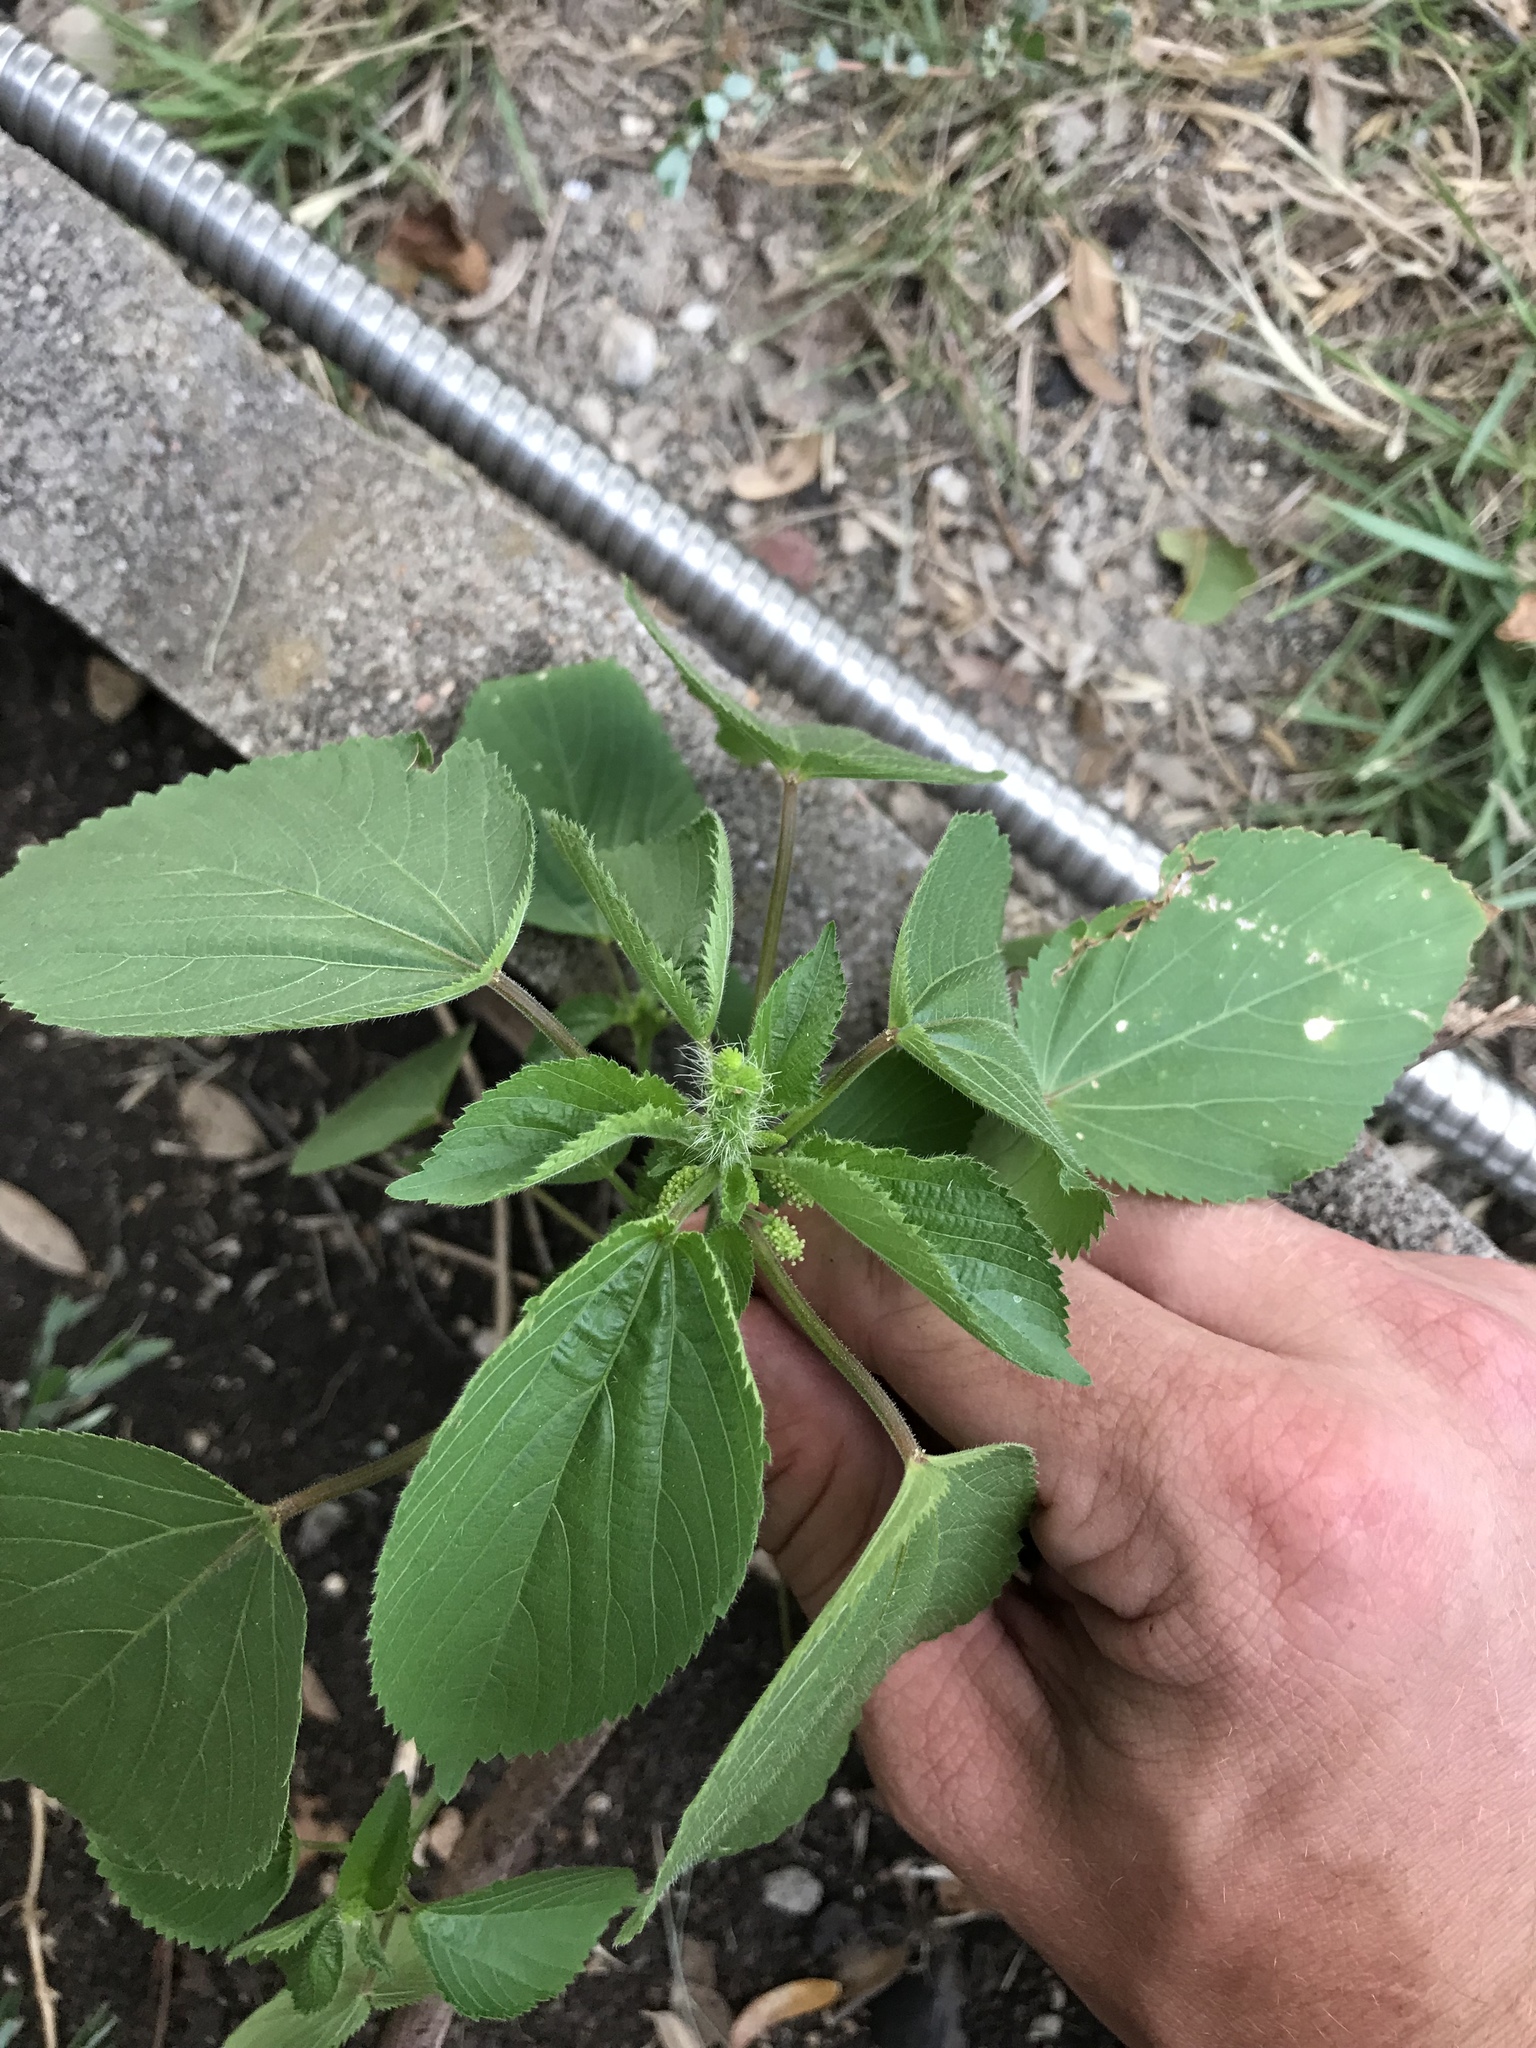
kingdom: Plantae
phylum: Tracheophyta
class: Magnoliopsida
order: Malpighiales
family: Euphorbiaceae
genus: Acalypha
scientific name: Acalypha ostryifolia
